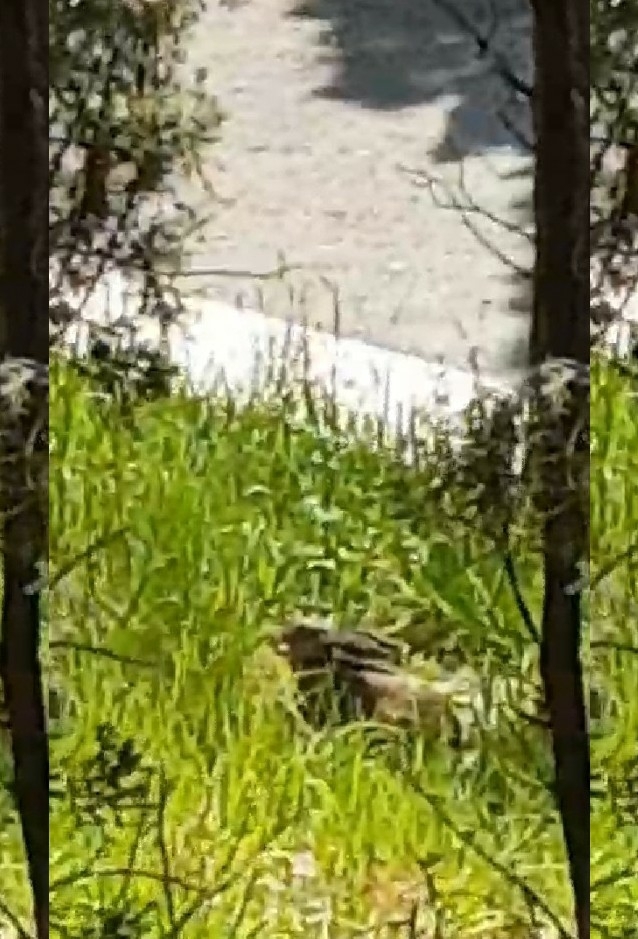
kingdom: Animalia
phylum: Chordata
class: Mammalia
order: Lagomorpha
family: Leporidae
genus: Lepus
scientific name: Lepus europaeus
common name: European hare
